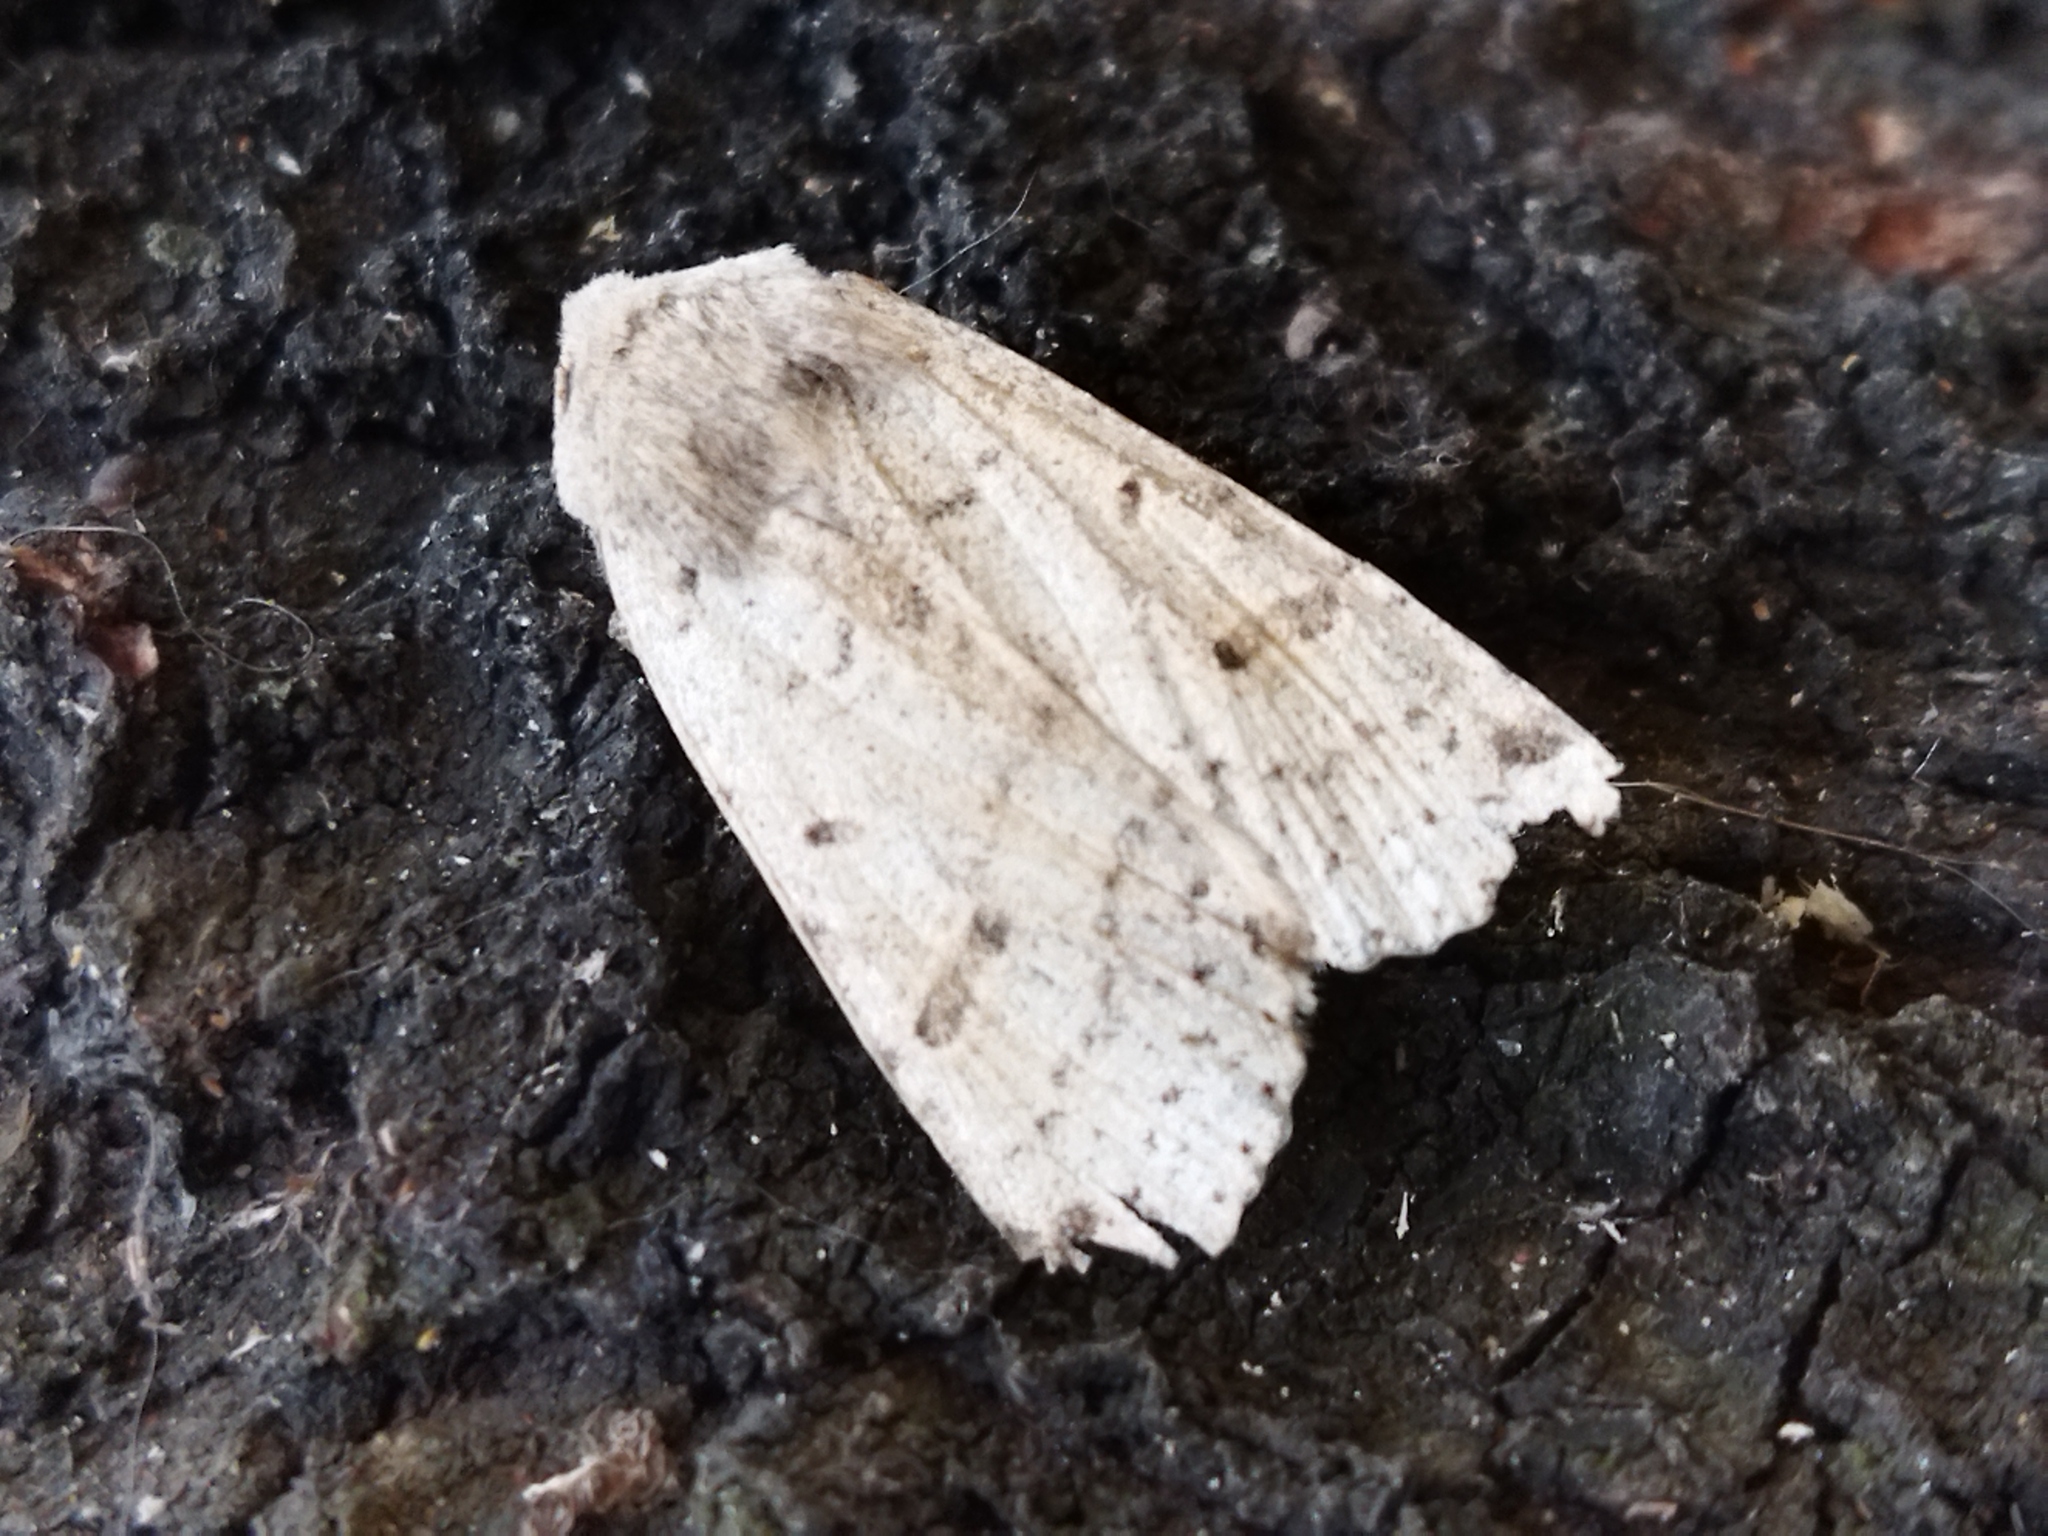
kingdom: Animalia
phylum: Arthropoda
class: Insecta
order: Lepidoptera
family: Noctuidae
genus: Agrochola
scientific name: Agrochola lychnidis
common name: Beaded chestnut
